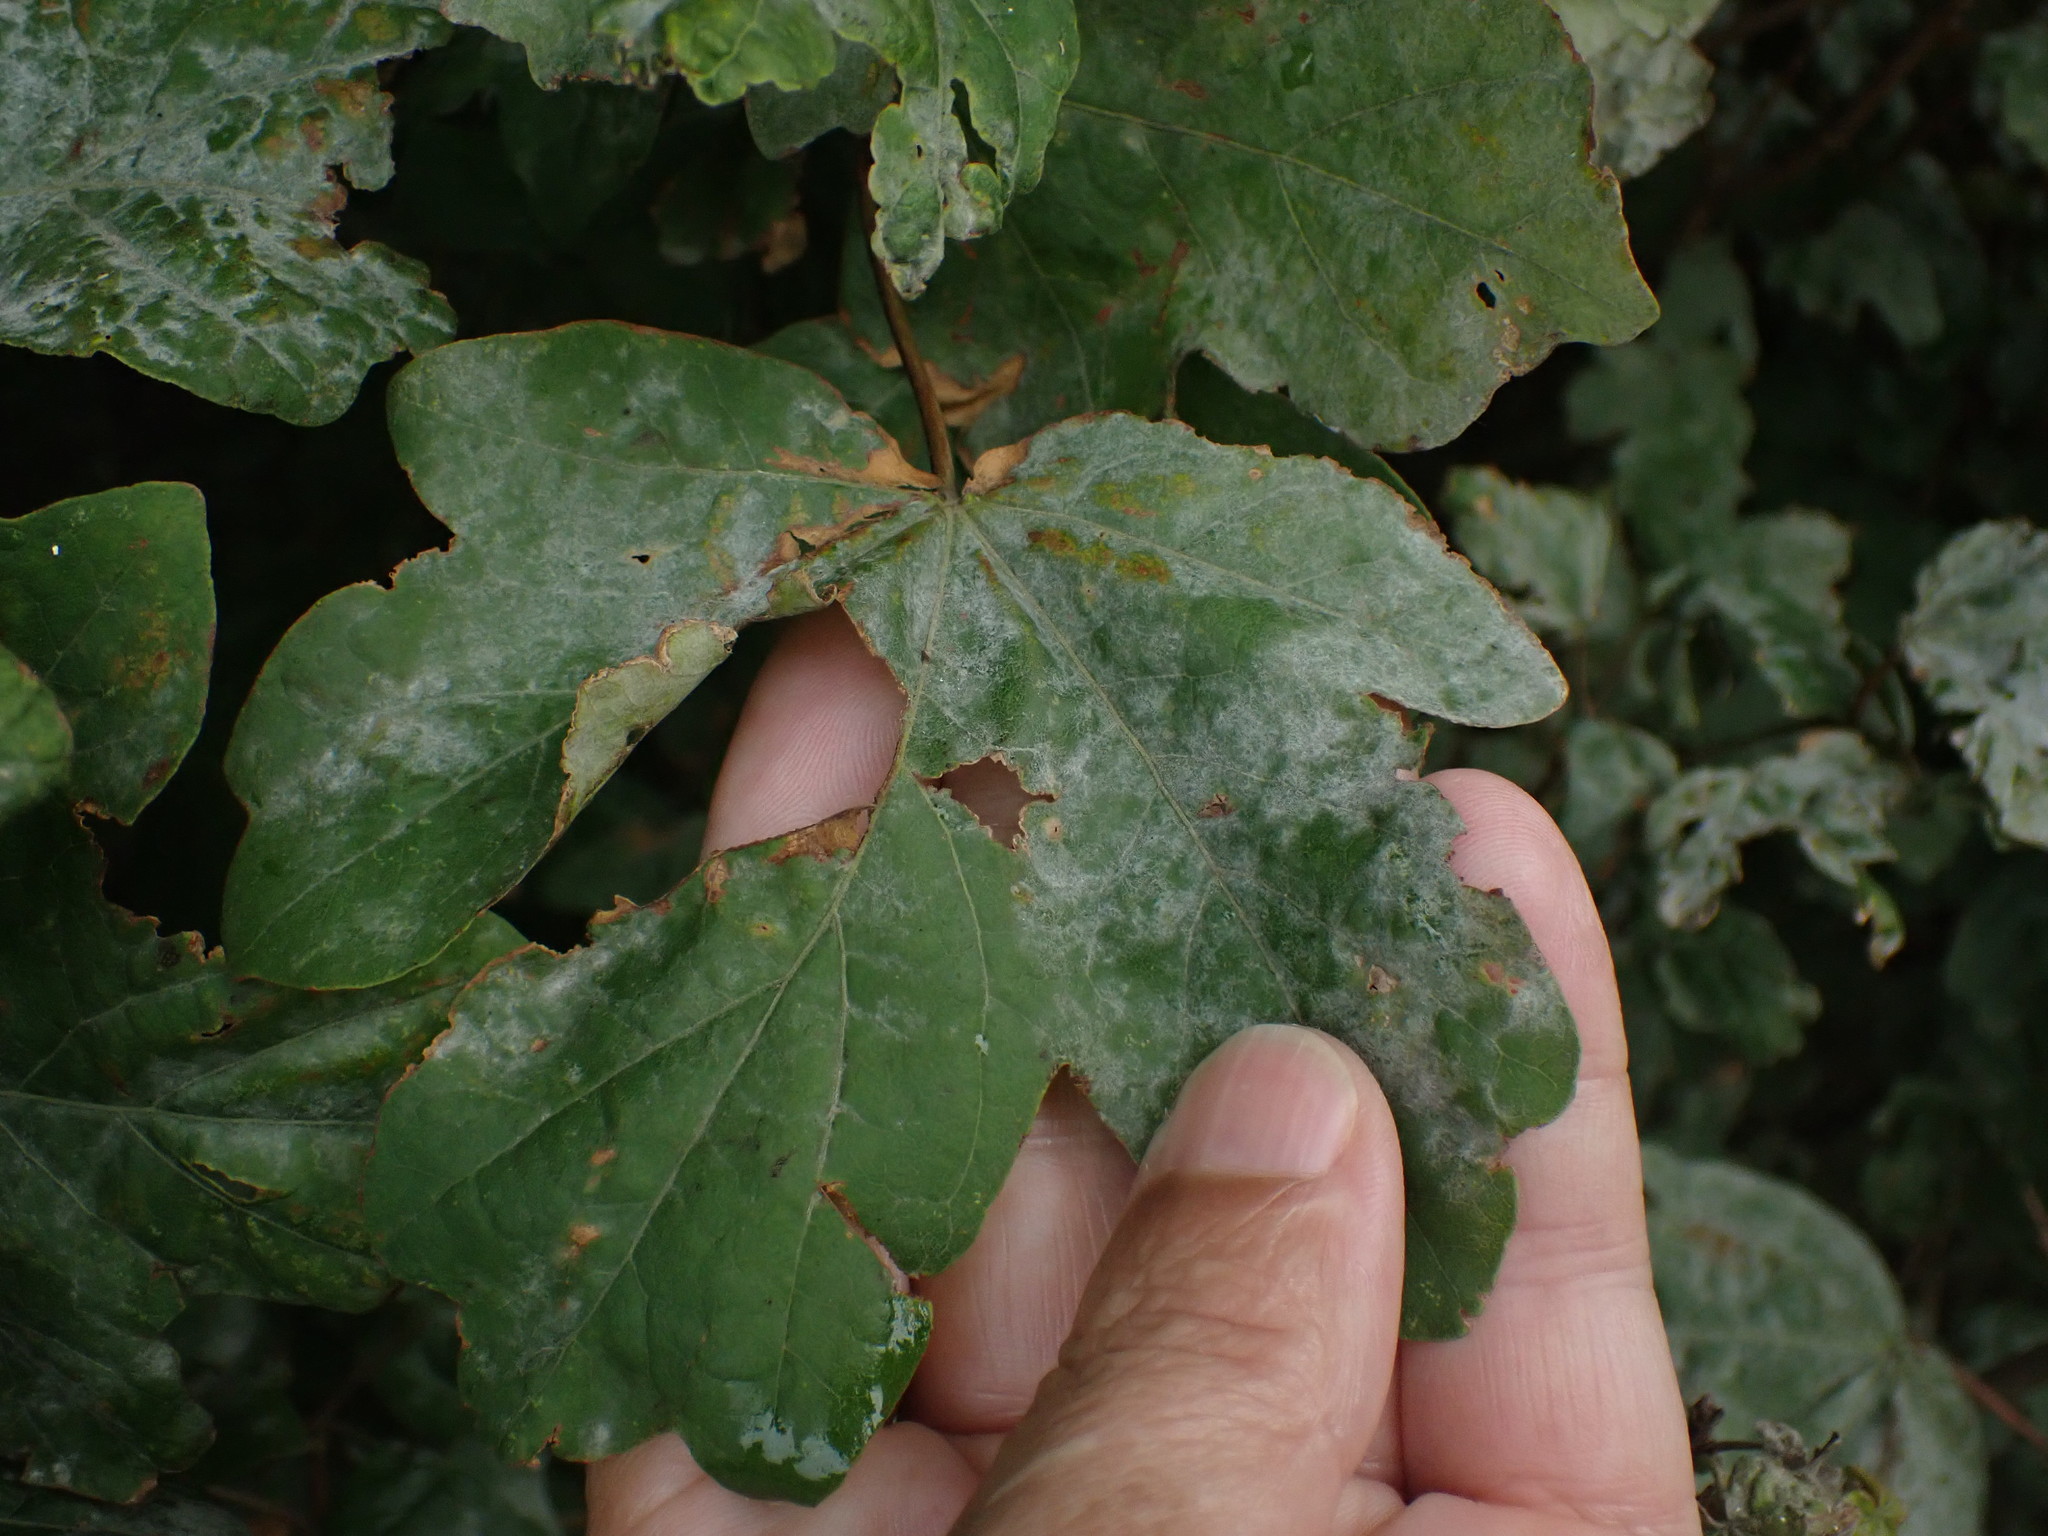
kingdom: Plantae
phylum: Tracheophyta
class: Magnoliopsida
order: Sapindales
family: Sapindaceae
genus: Acer
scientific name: Acer campestre
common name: Field maple
